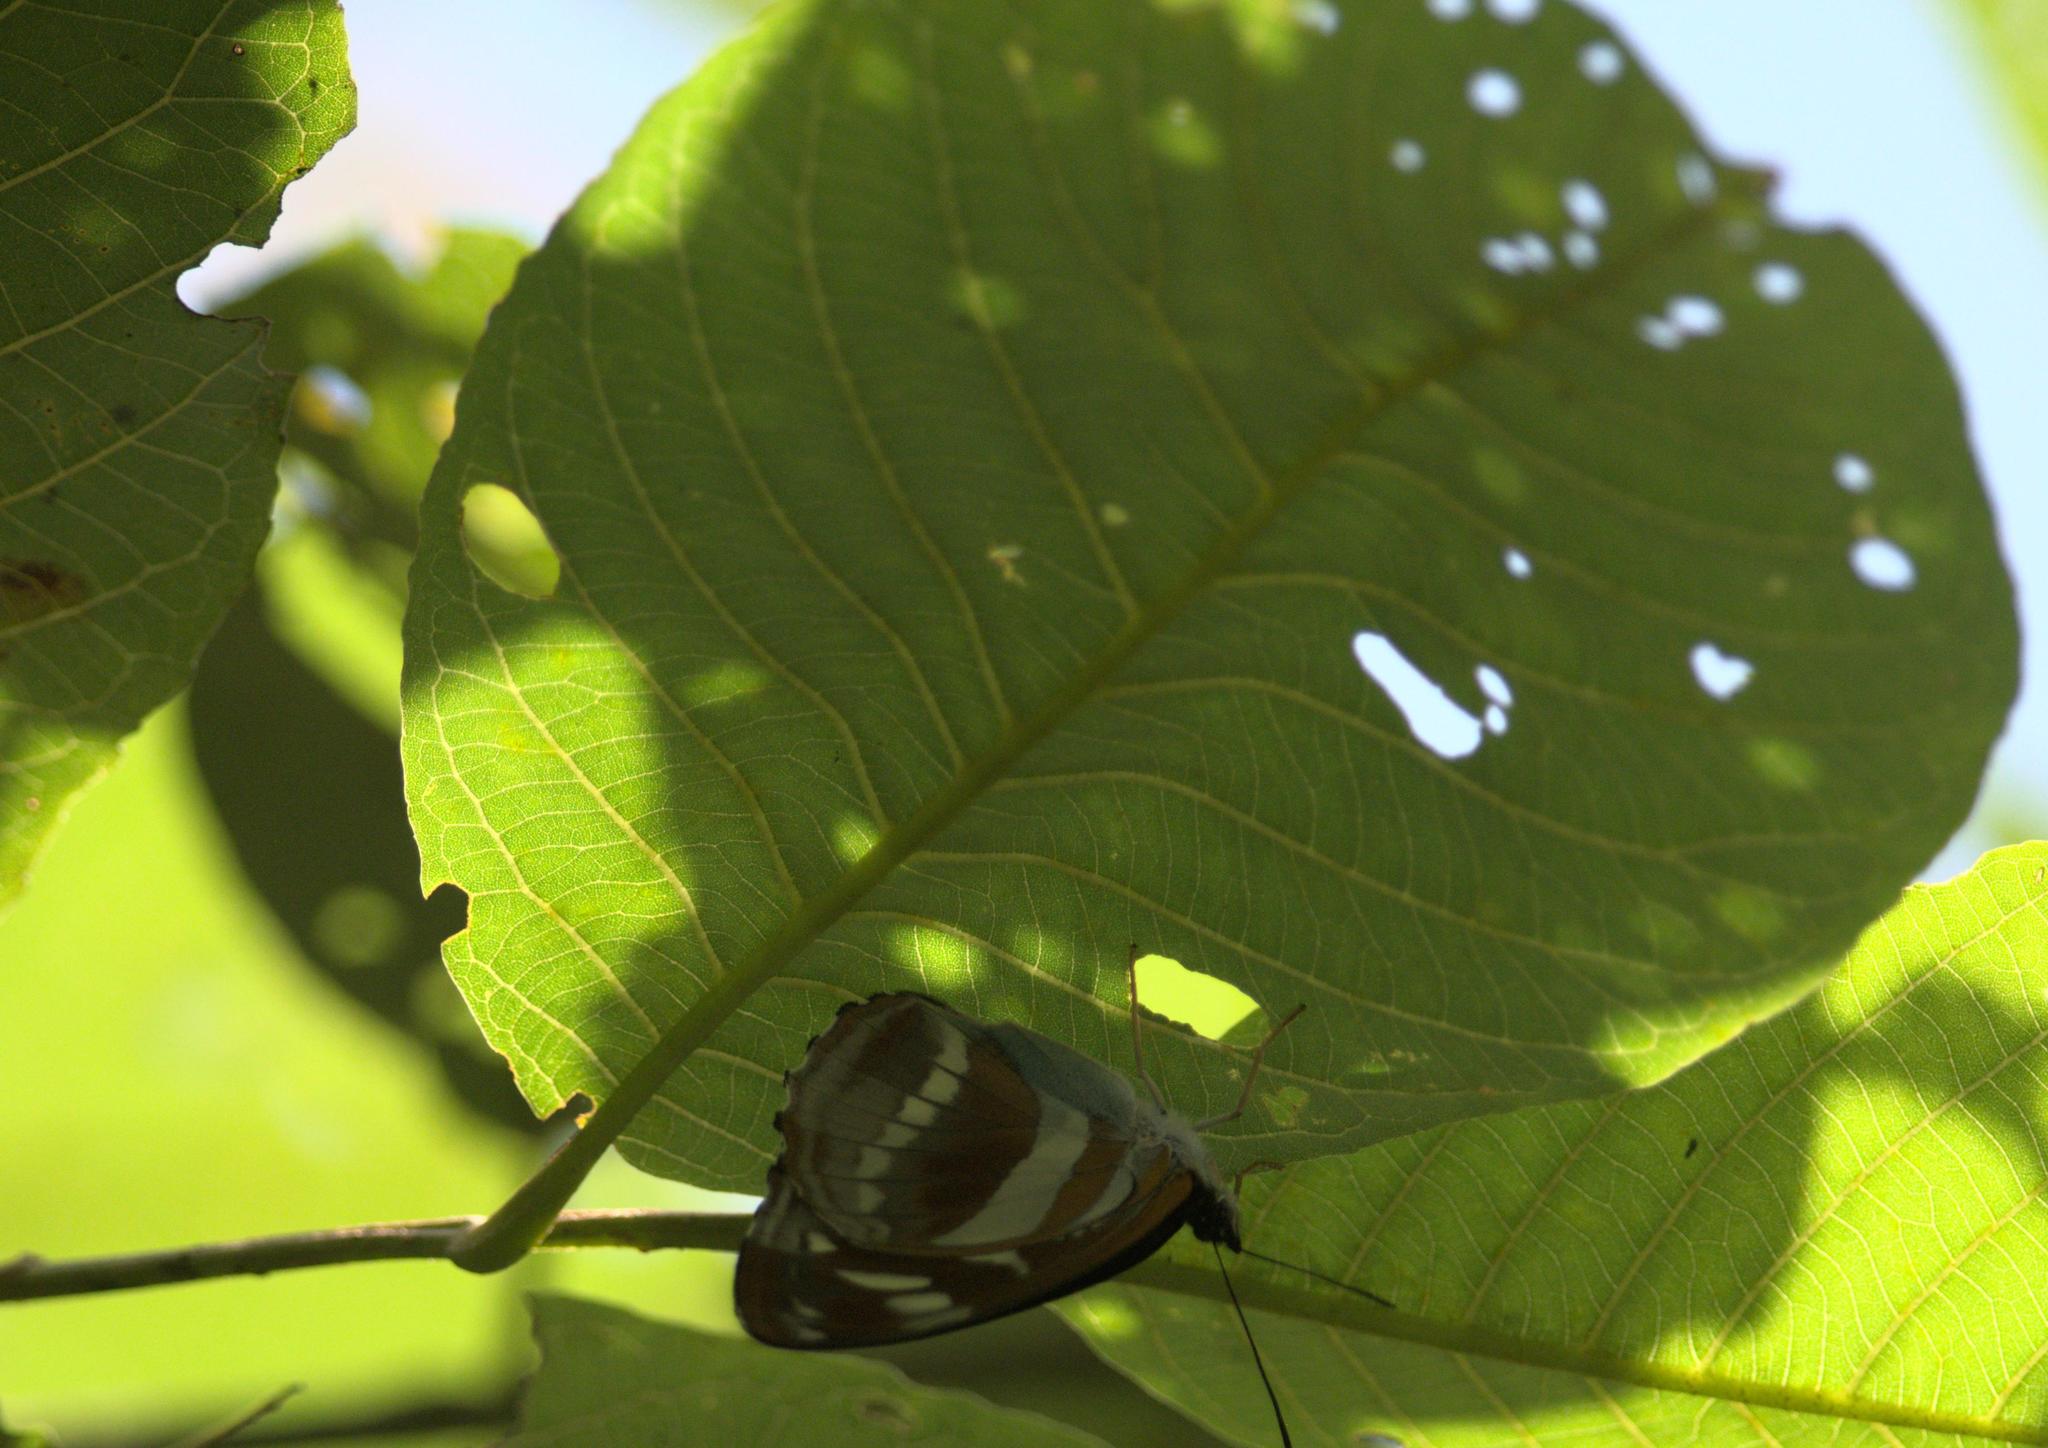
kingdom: Animalia
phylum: Arthropoda
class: Insecta
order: Lepidoptera
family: Nymphalidae
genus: Parathyma
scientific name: Parathyma opalina
